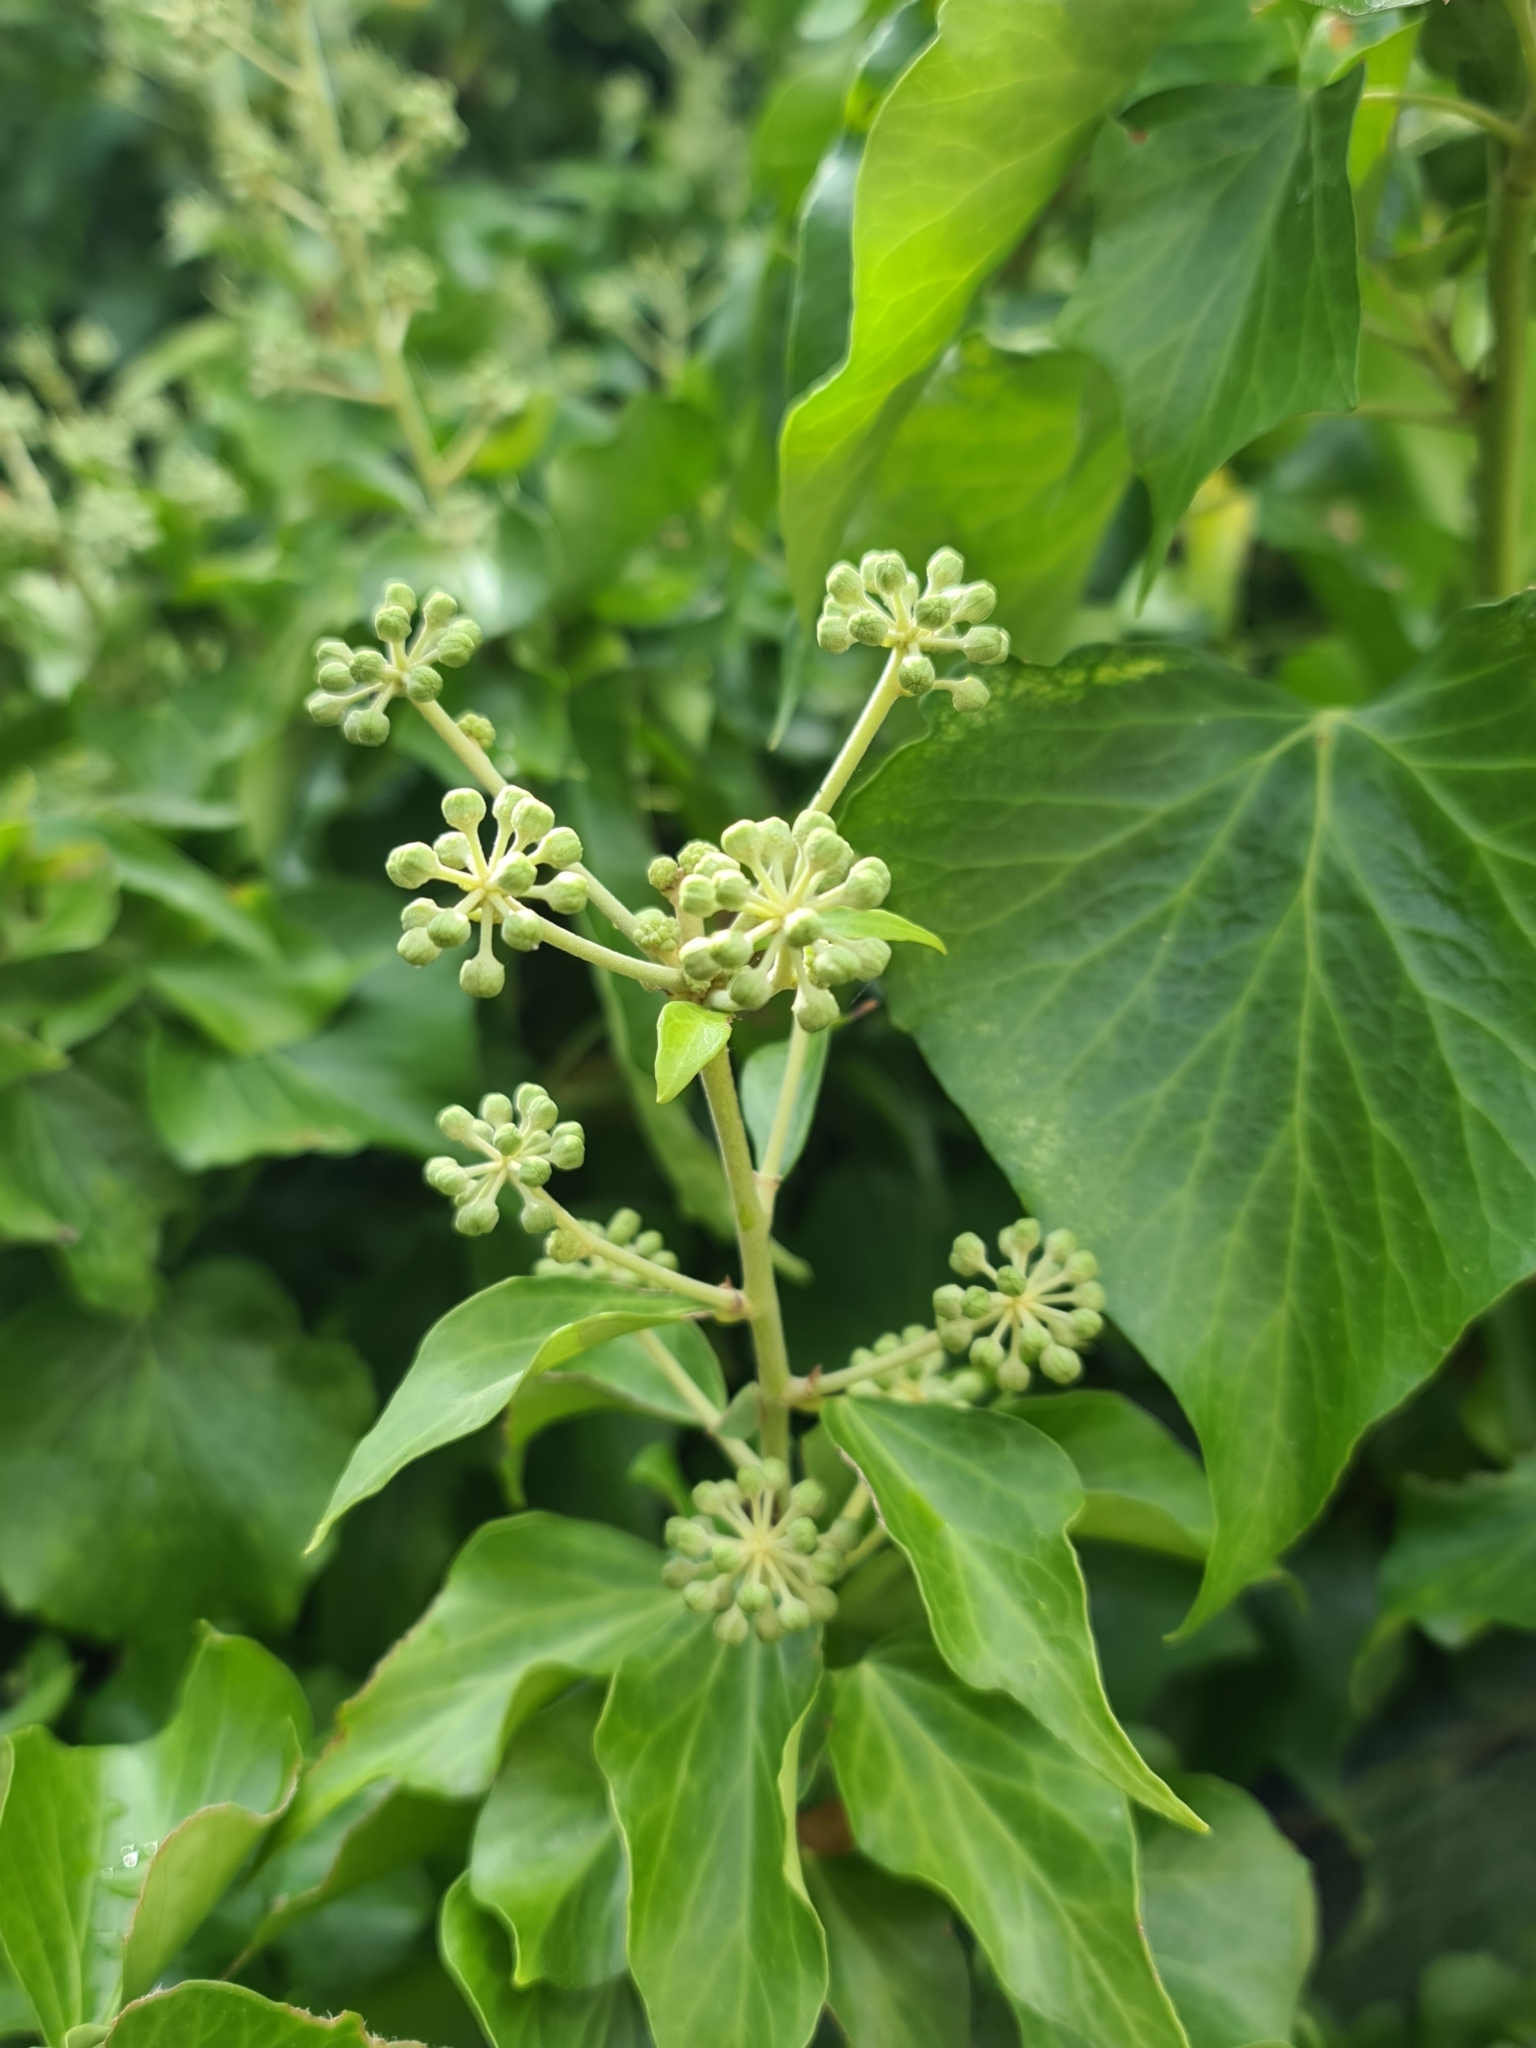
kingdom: Plantae
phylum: Tracheophyta
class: Magnoliopsida
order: Apiales
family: Araliaceae
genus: Hedera
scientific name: Hedera helix
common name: Ivy
